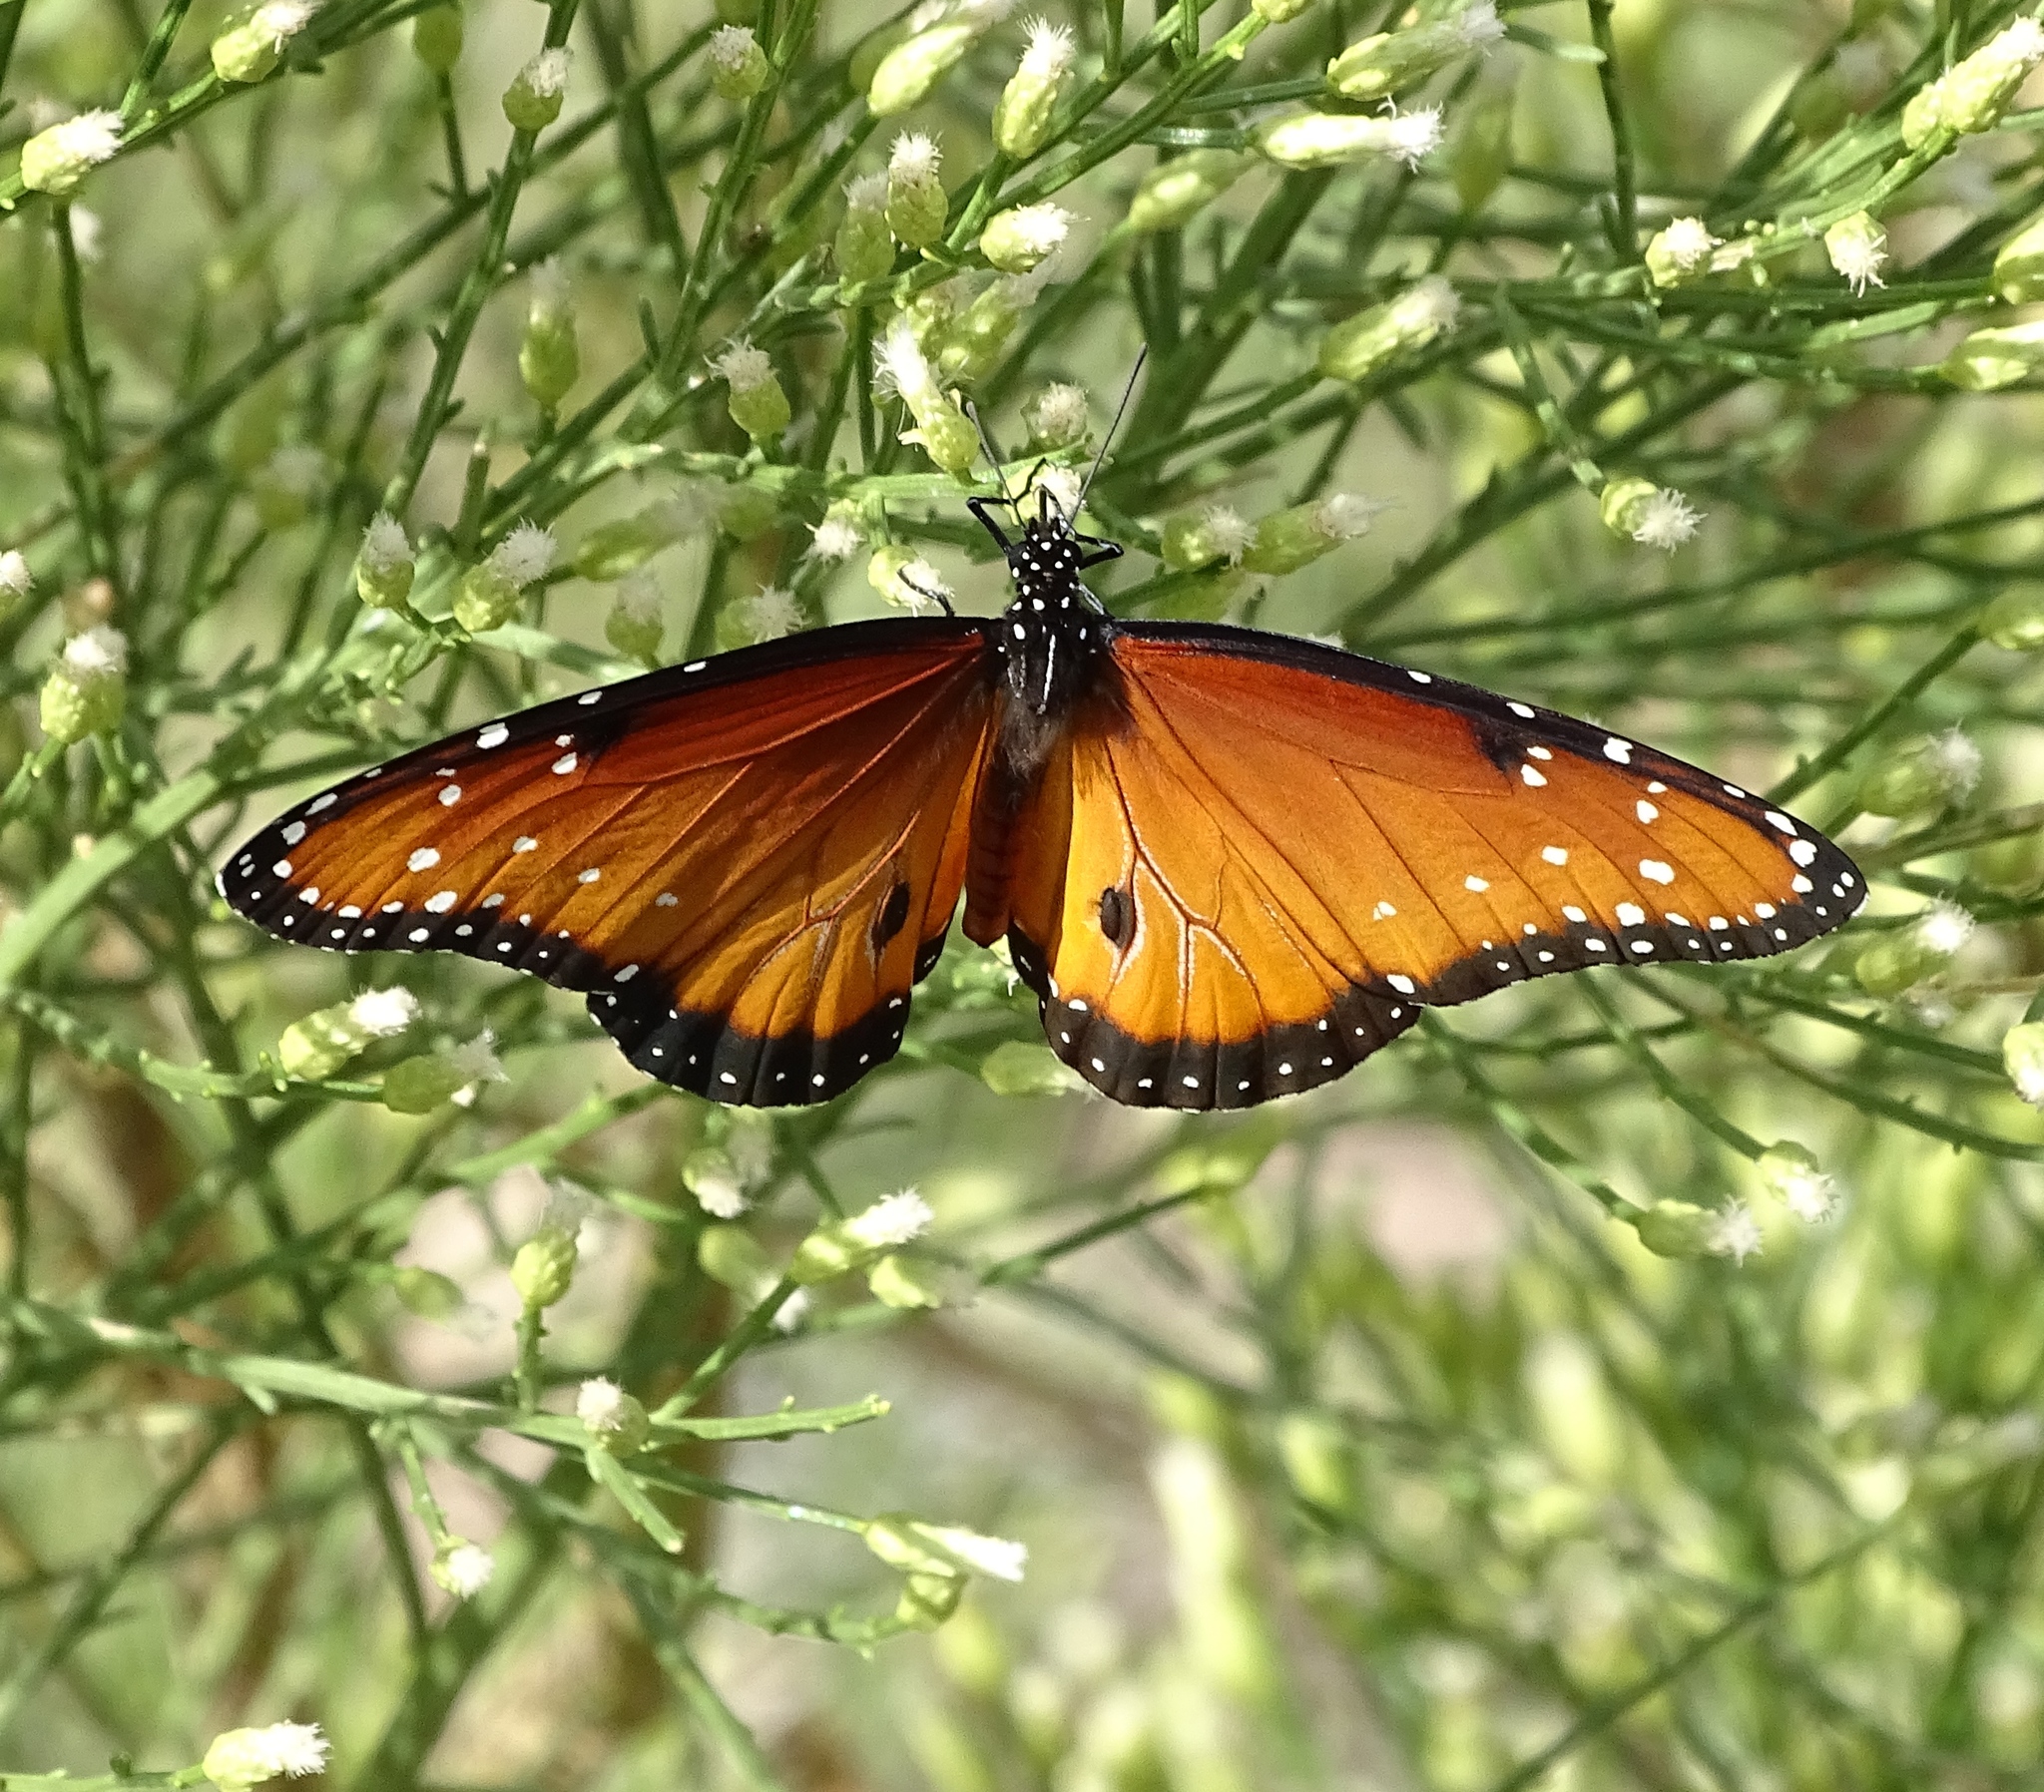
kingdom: Animalia
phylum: Arthropoda
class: Insecta
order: Lepidoptera
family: Nymphalidae
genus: Danaus
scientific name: Danaus gilippus
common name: Queen
